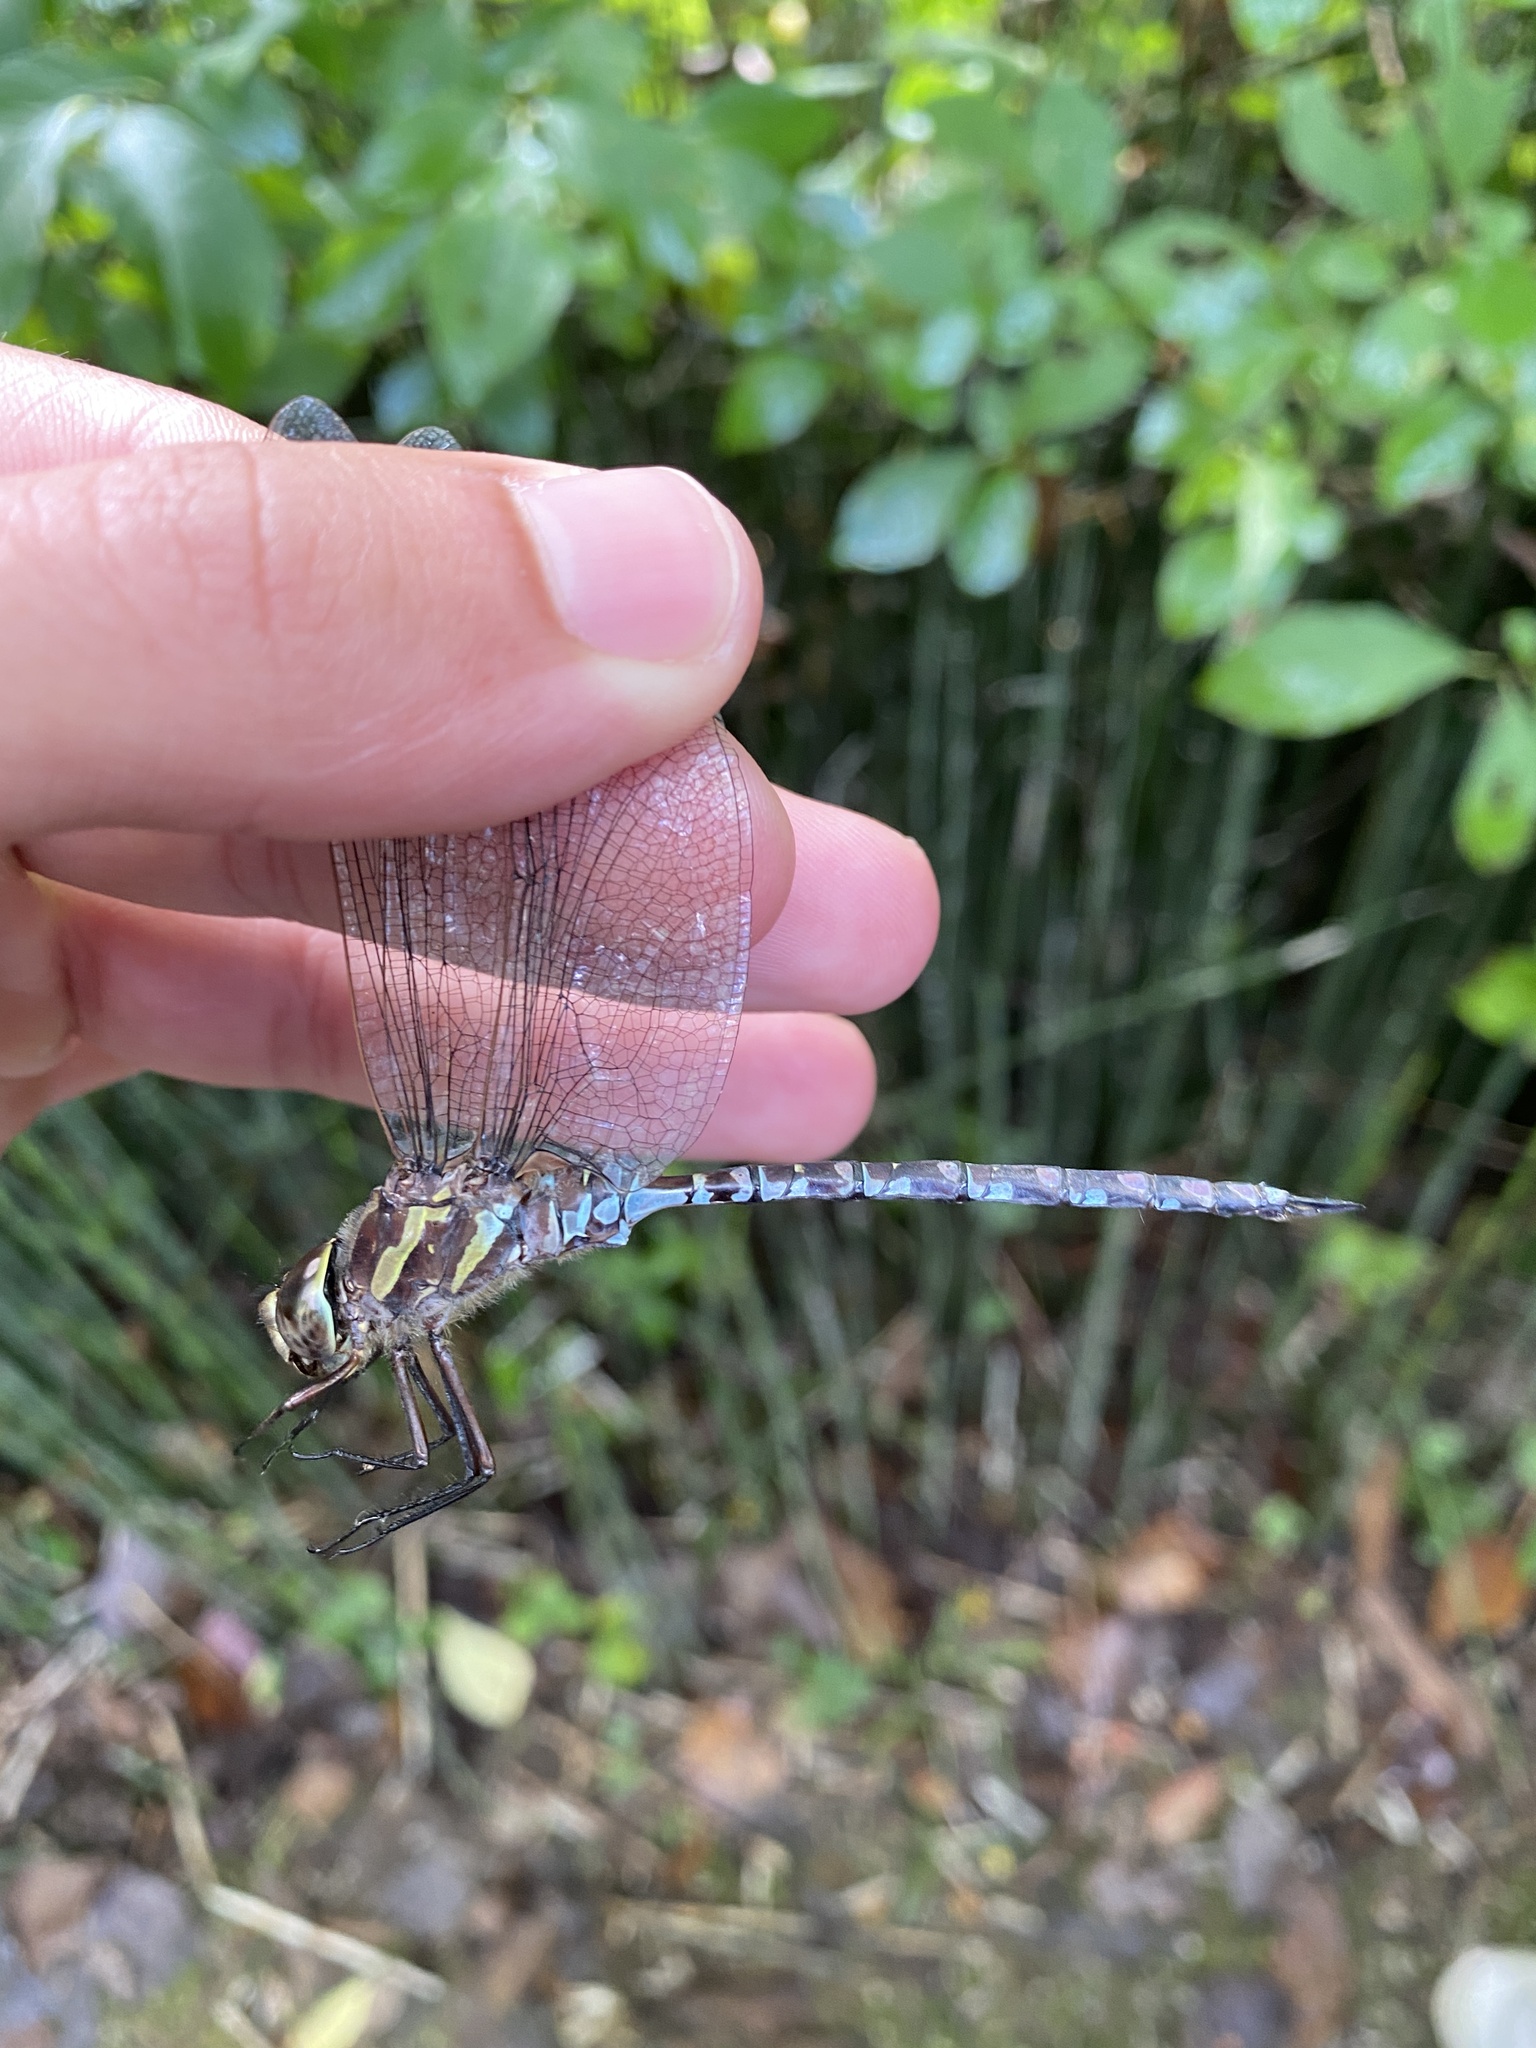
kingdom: Animalia
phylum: Arthropoda
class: Insecta
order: Odonata
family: Aeshnidae
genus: Aeshna
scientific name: Aeshna verticalis
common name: Green-striped darner
